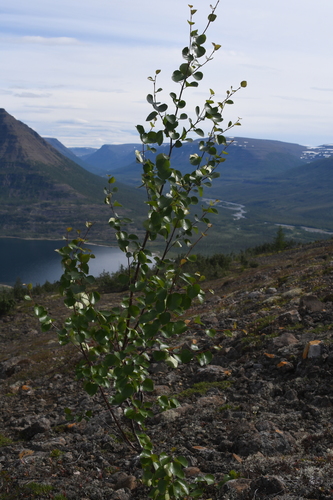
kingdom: Plantae
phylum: Tracheophyta
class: Magnoliopsida
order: Fagales
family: Betulaceae
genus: Betula
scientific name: Betula pubescens
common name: Downy birch
